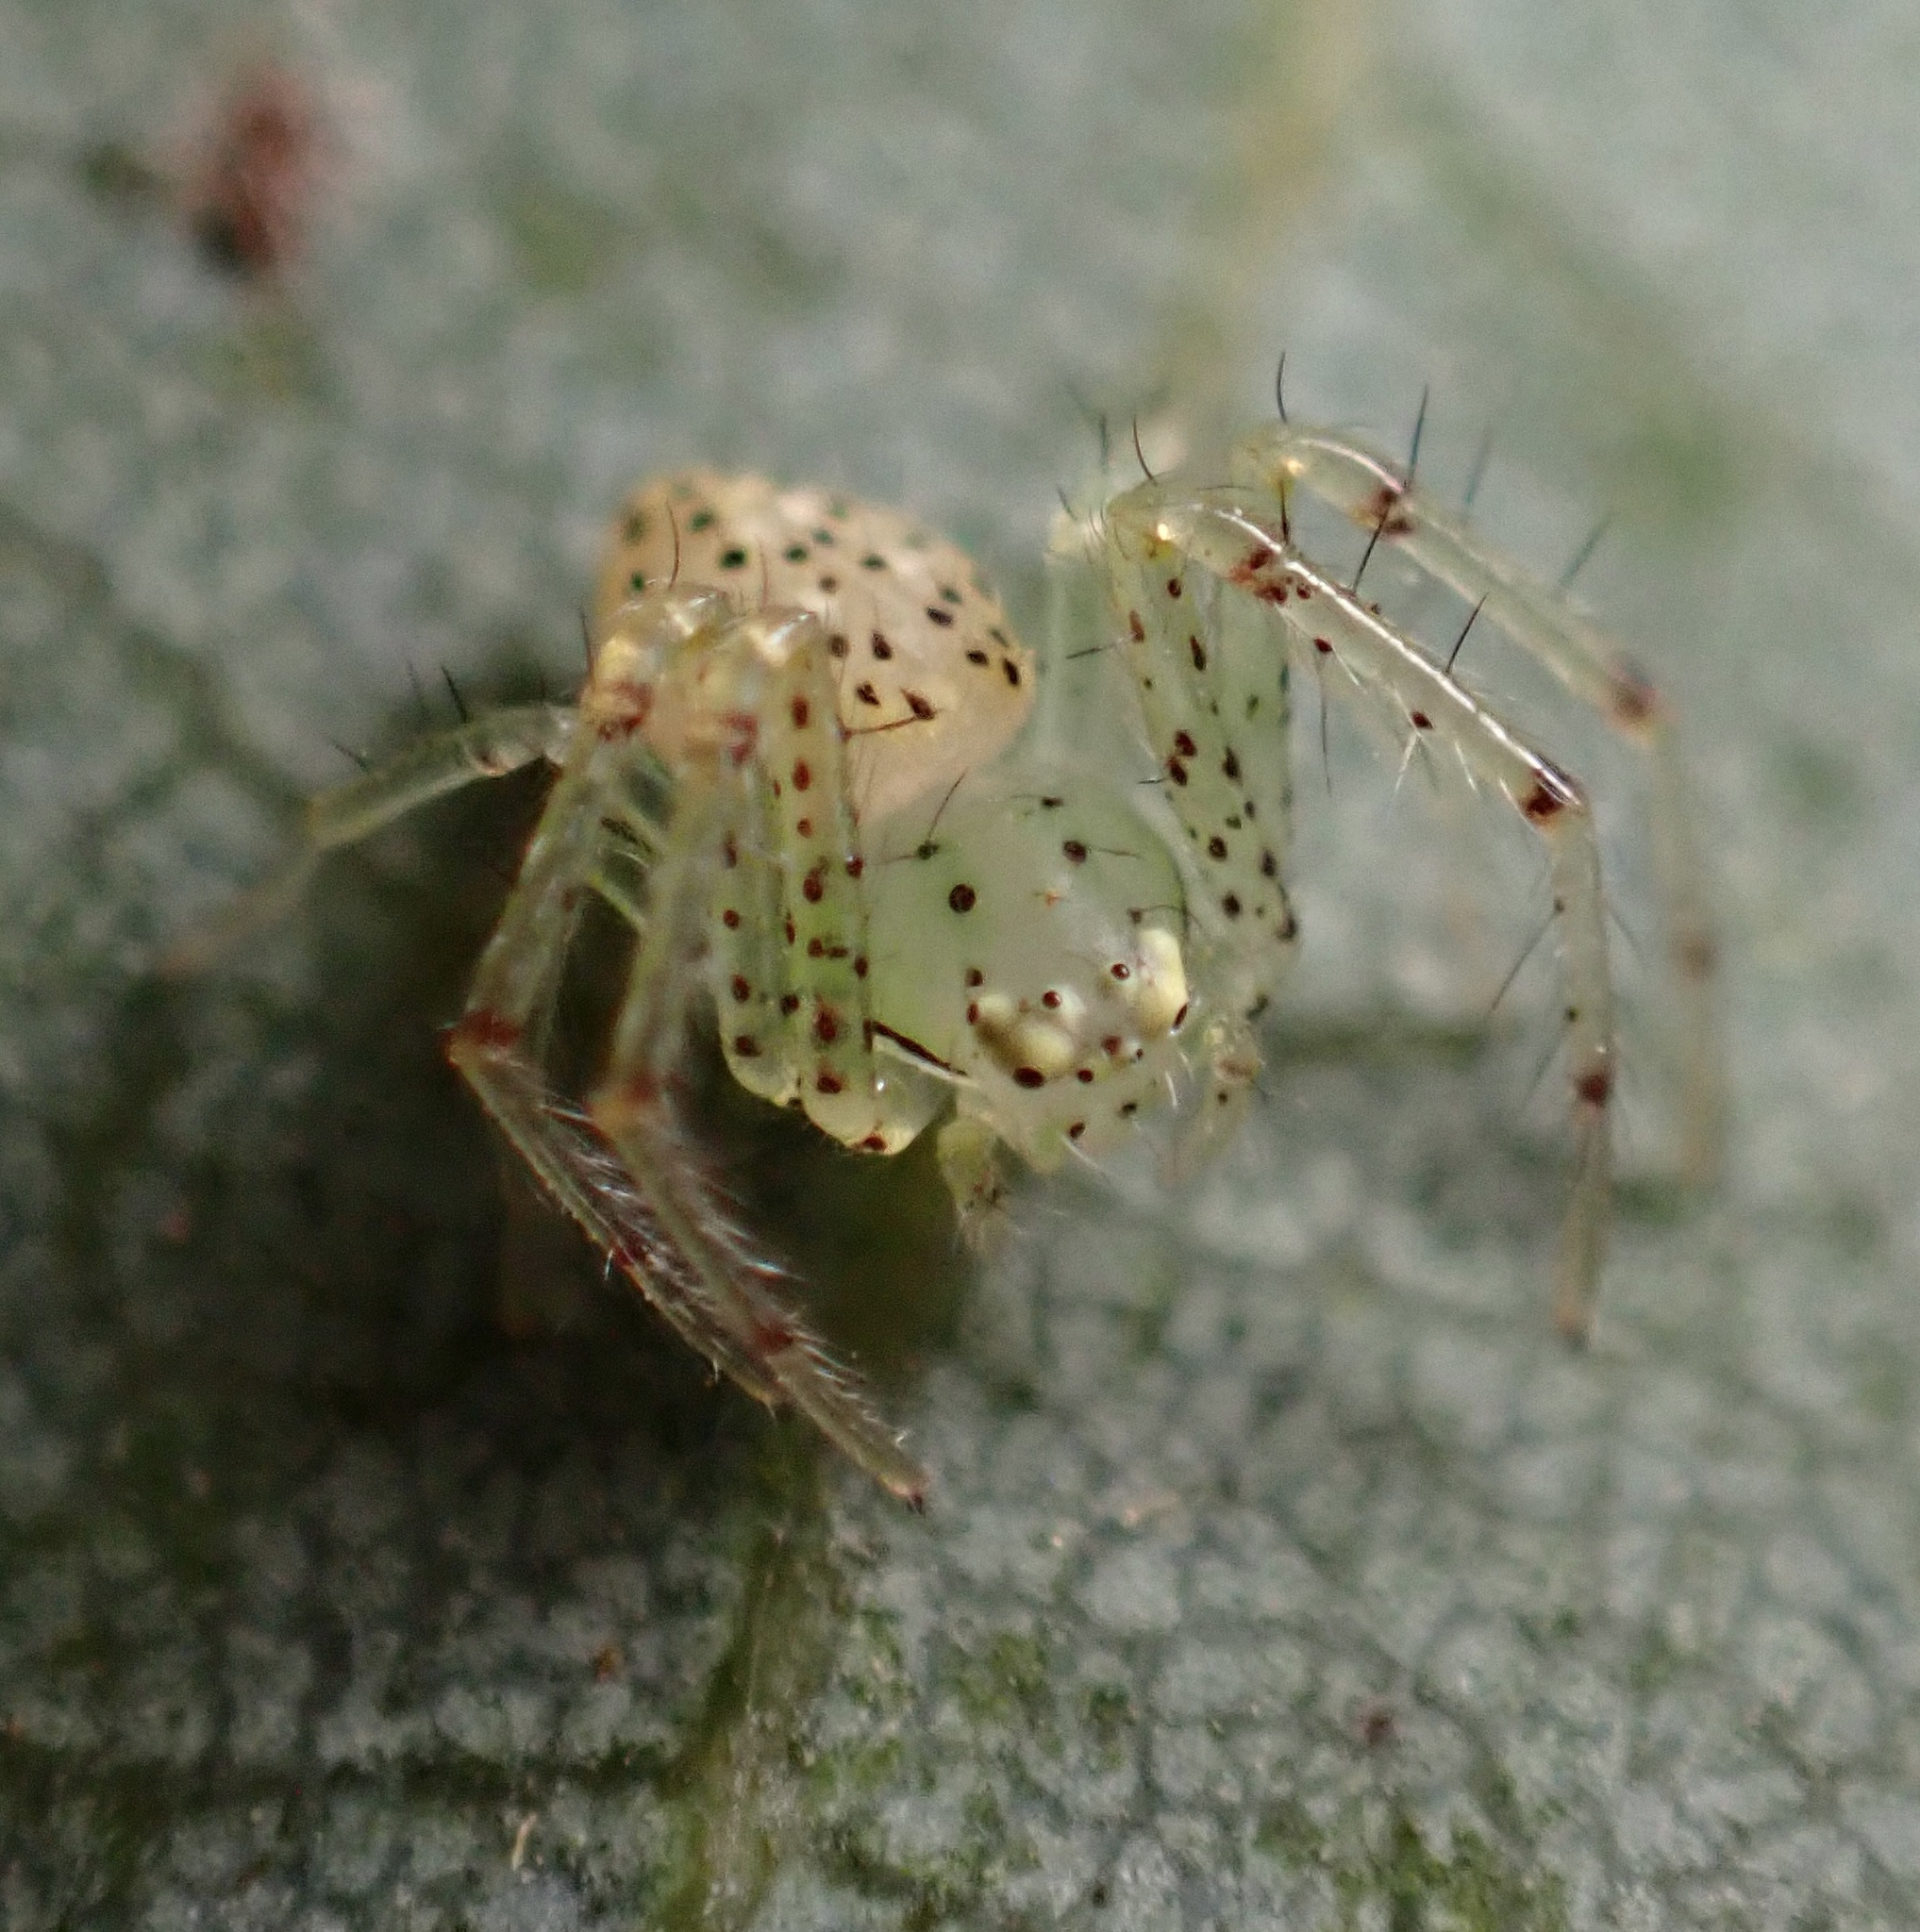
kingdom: Animalia
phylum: Arthropoda
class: Arachnida
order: Araneae
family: Thomisidae
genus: Diaea
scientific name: Diaea livens
